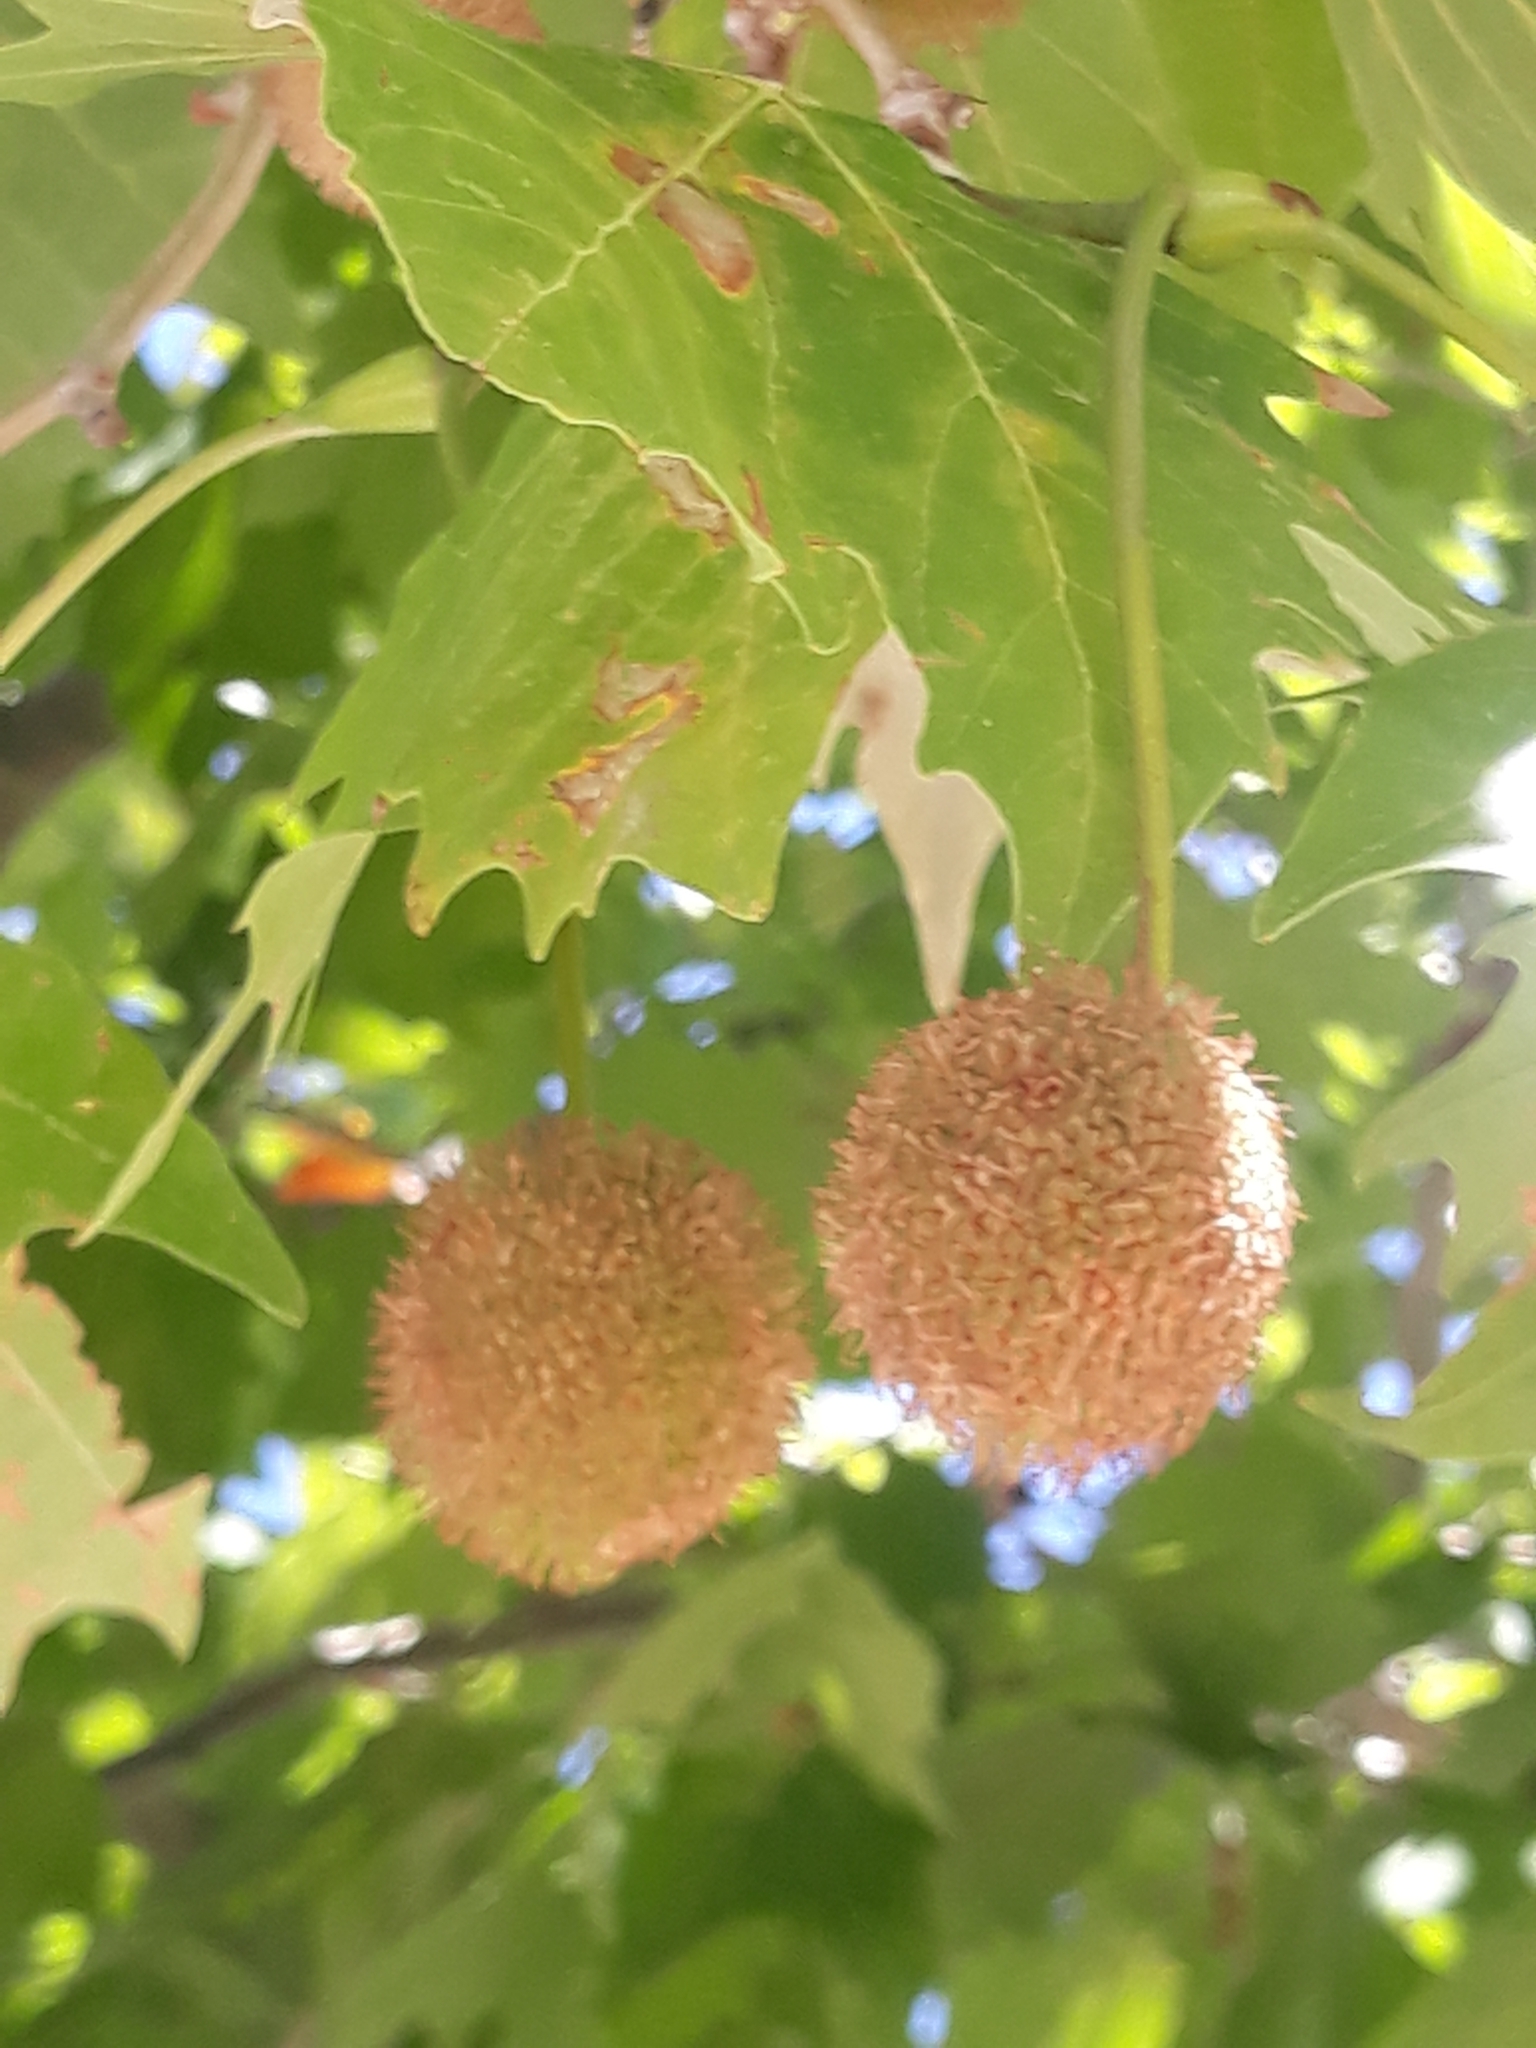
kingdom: Plantae
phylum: Tracheophyta
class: Magnoliopsida
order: Proteales
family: Platanaceae
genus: Platanus
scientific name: Platanus hispanica
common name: London plane
